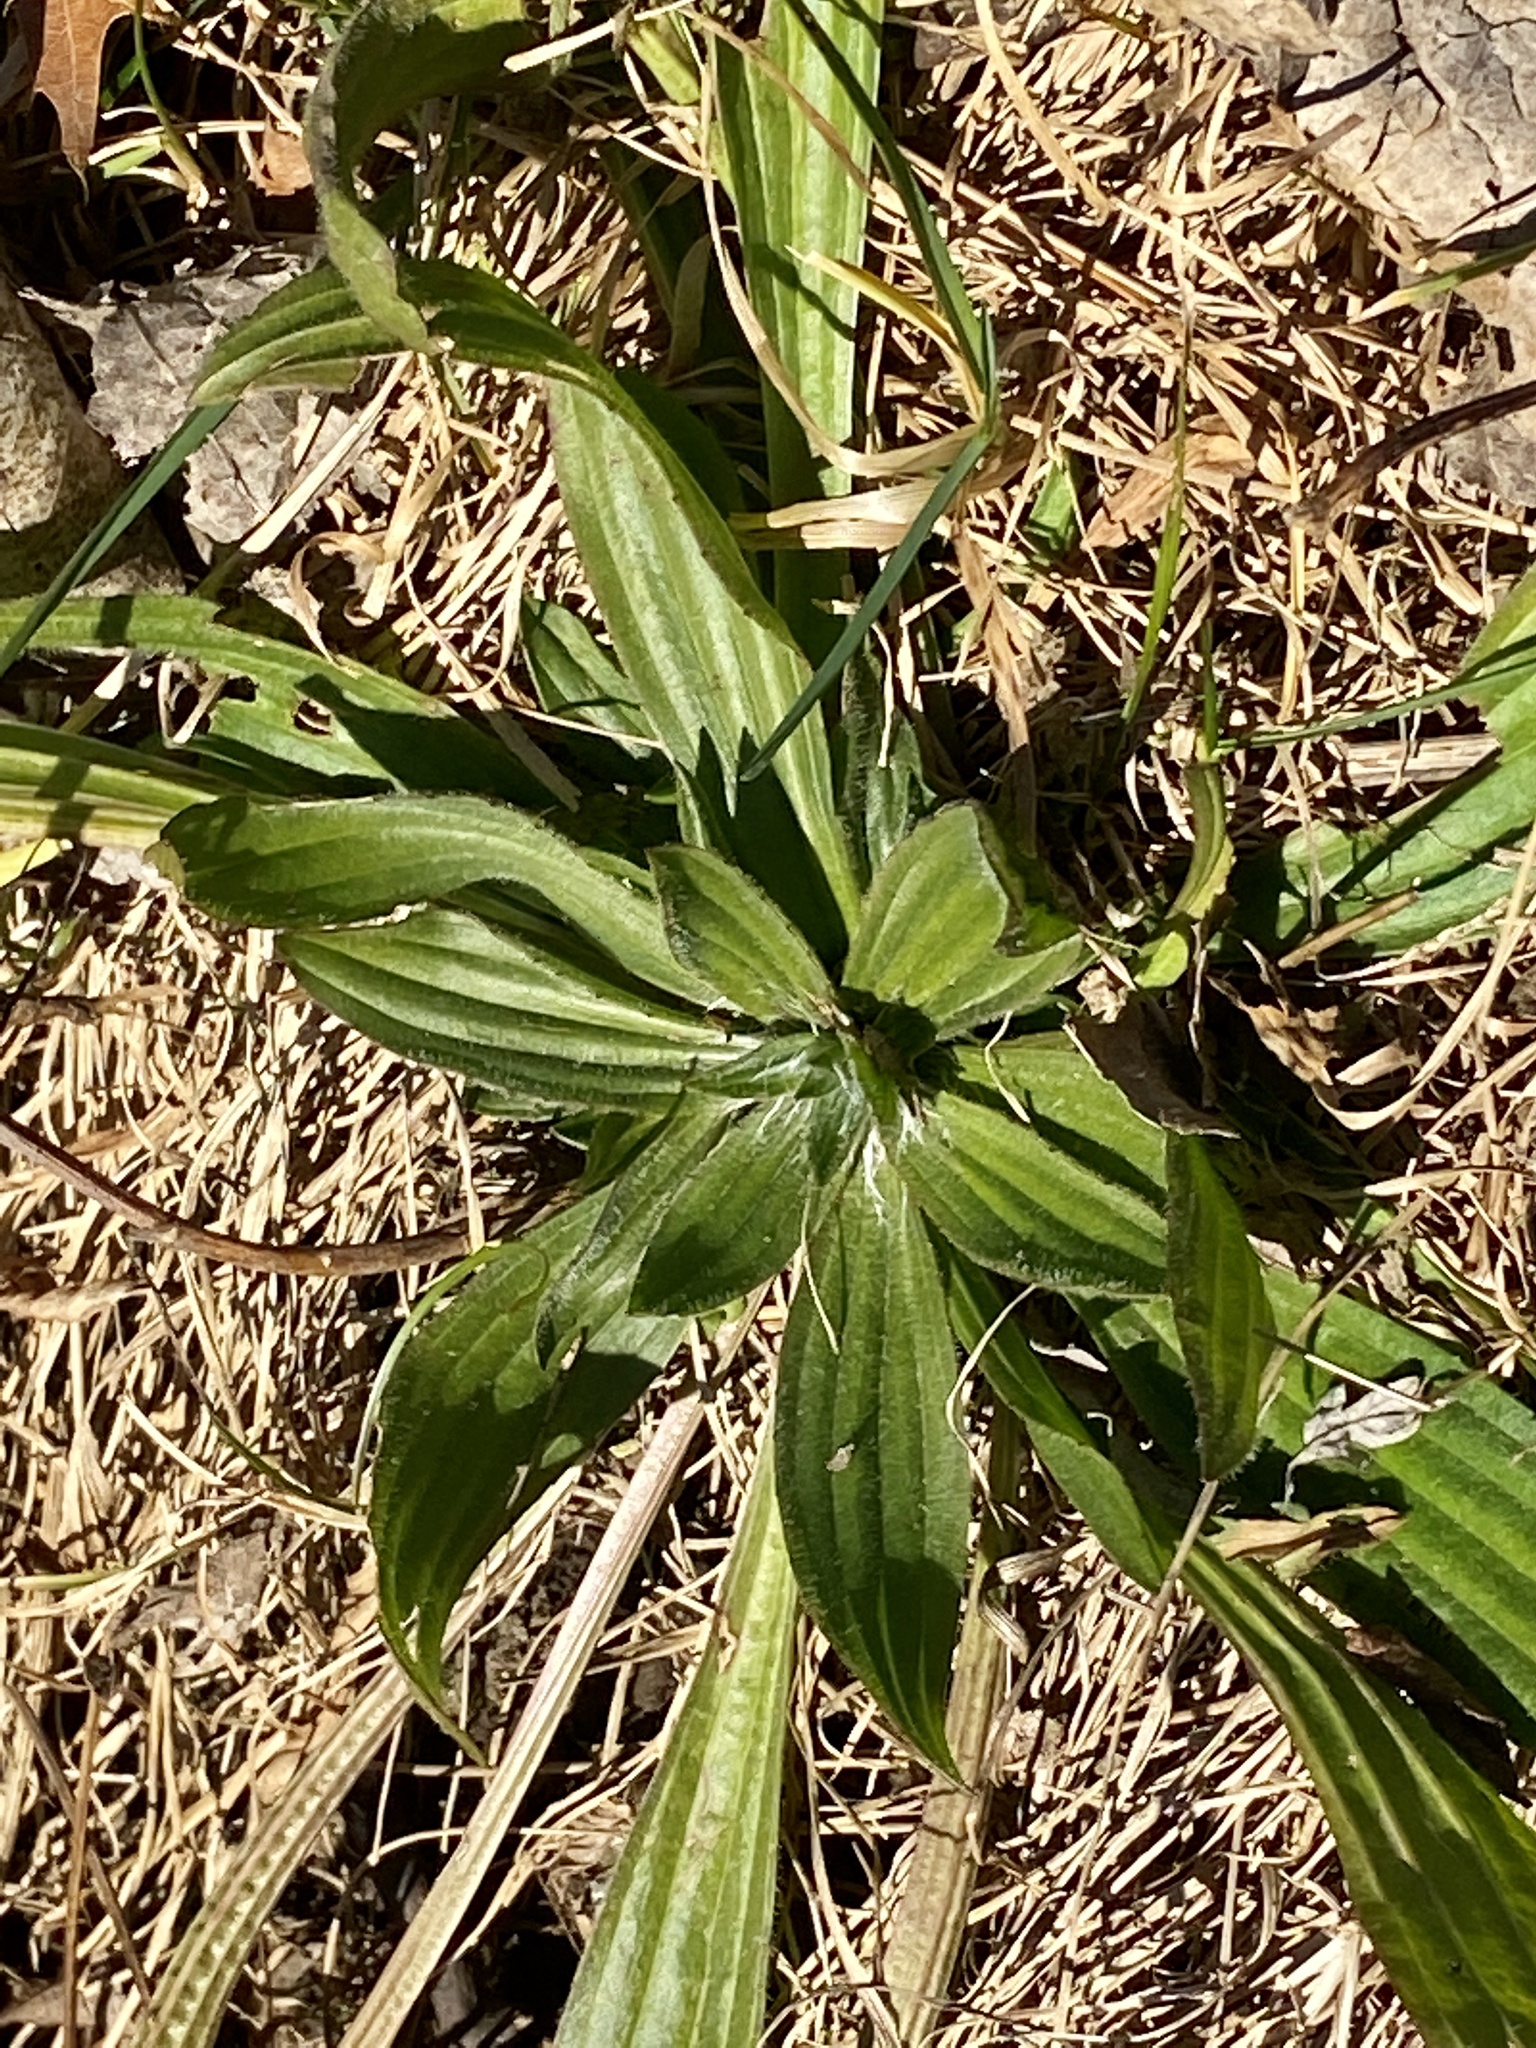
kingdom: Plantae
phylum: Tracheophyta
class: Magnoliopsida
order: Lamiales
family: Plantaginaceae
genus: Plantago
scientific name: Plantago lanceolata
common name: Ribwort plantain
